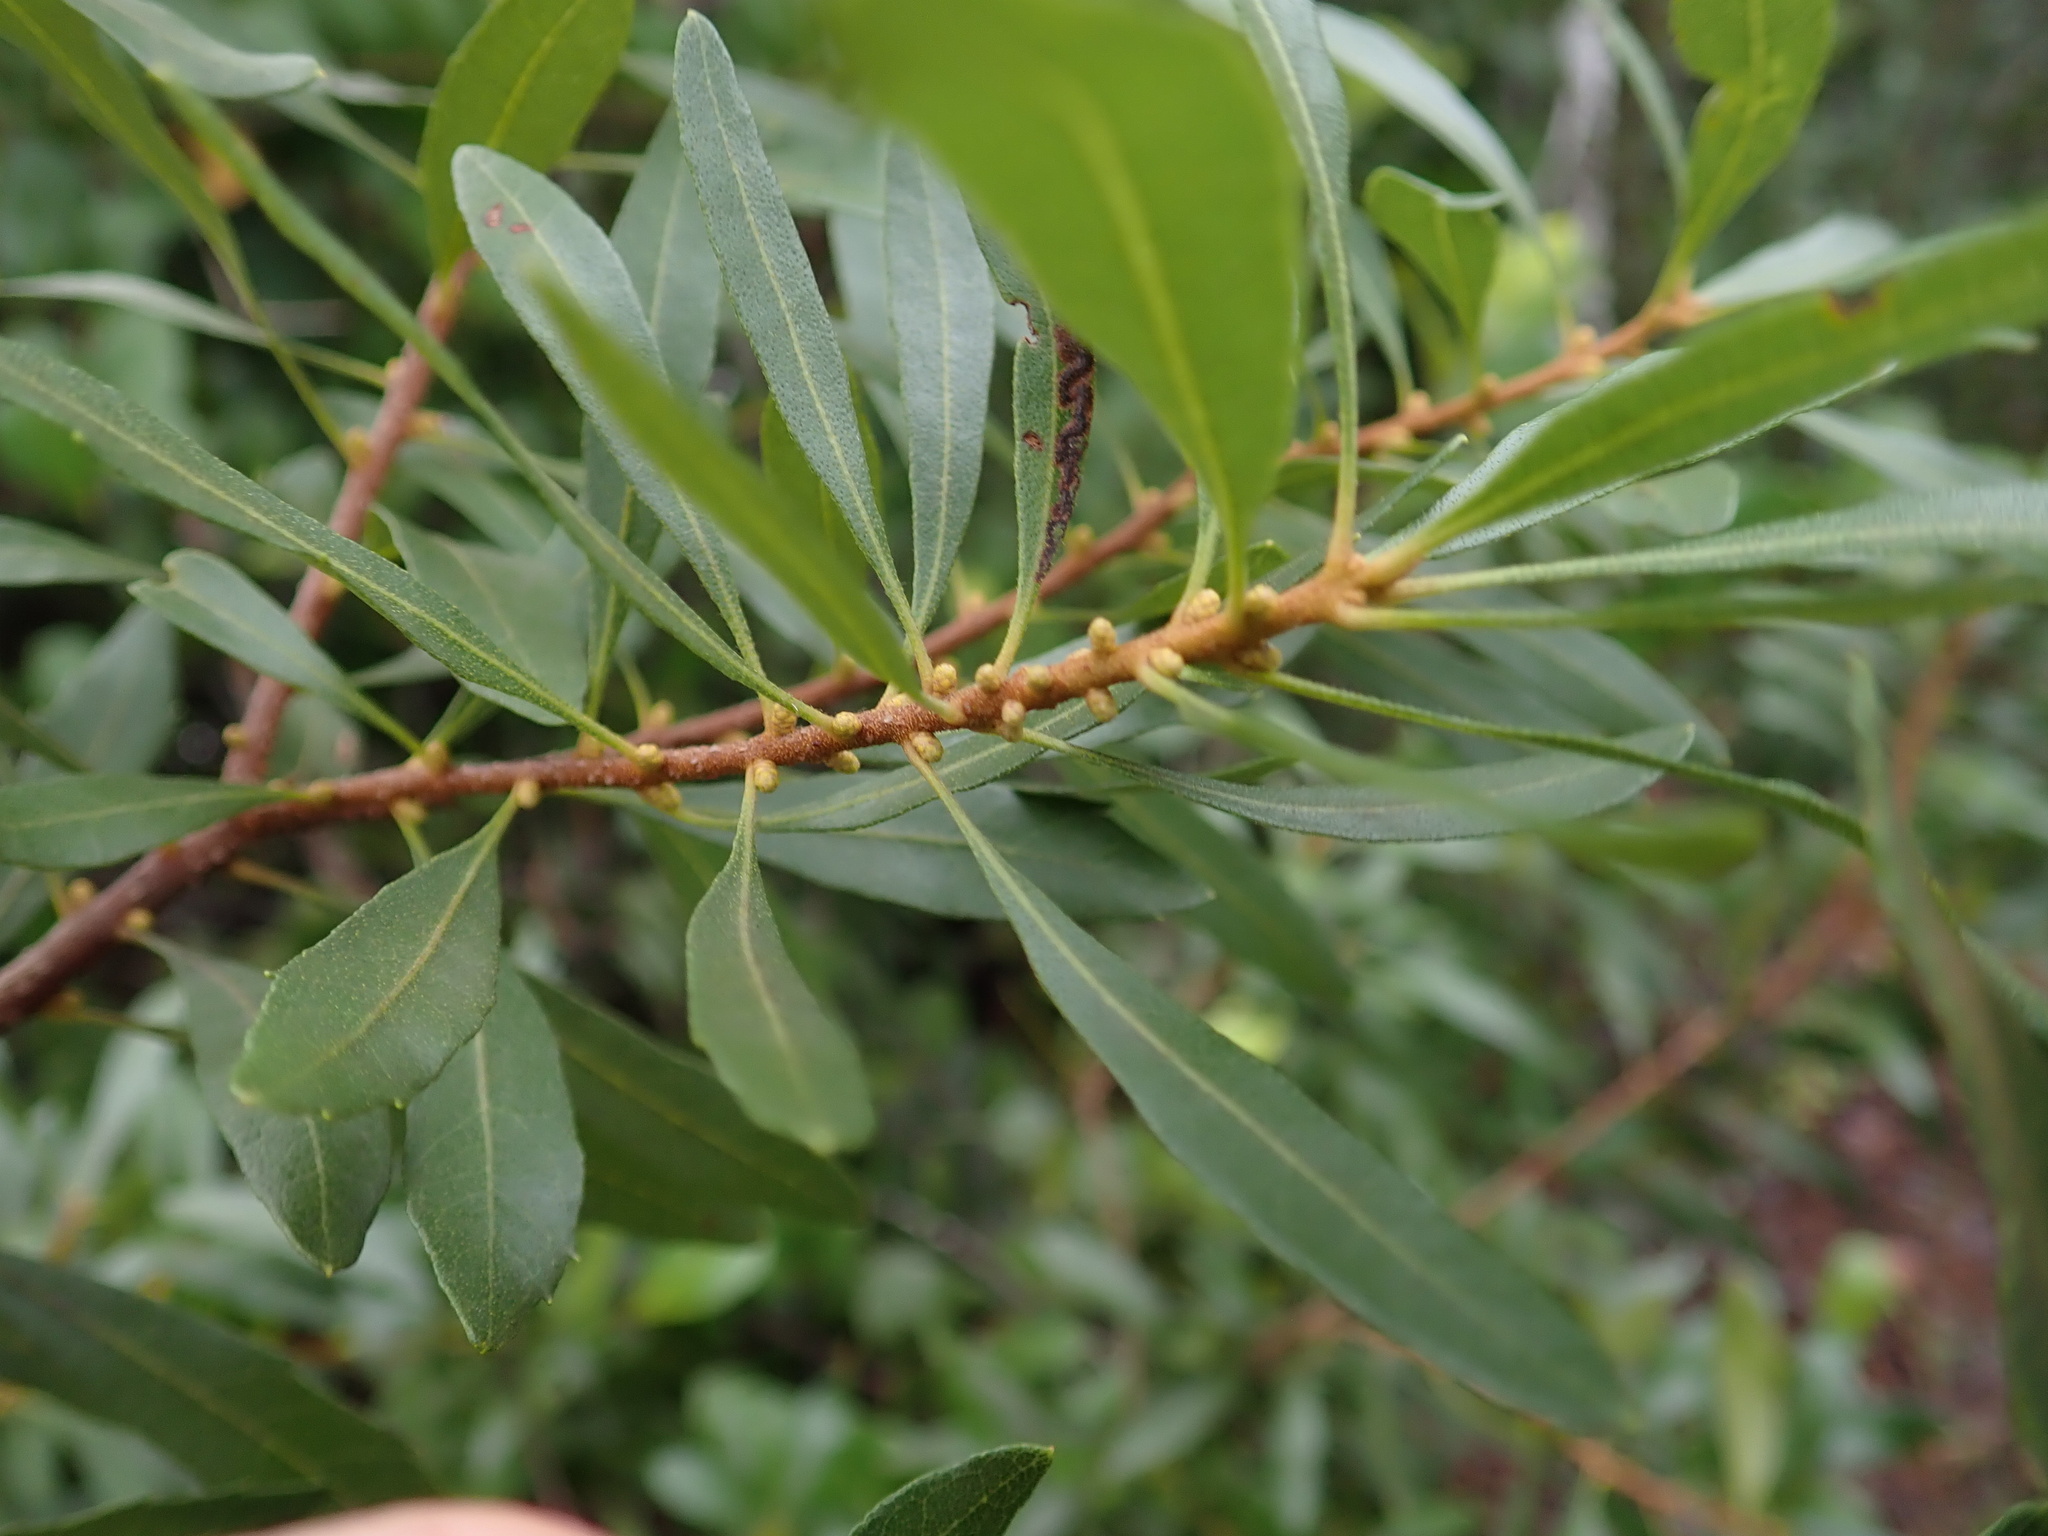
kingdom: Plantae
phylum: Tracheophyta
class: Magnoliopsida
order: Fagales
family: Myricaceae
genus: Morella
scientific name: Morella cerifera
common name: Wax myrtle
